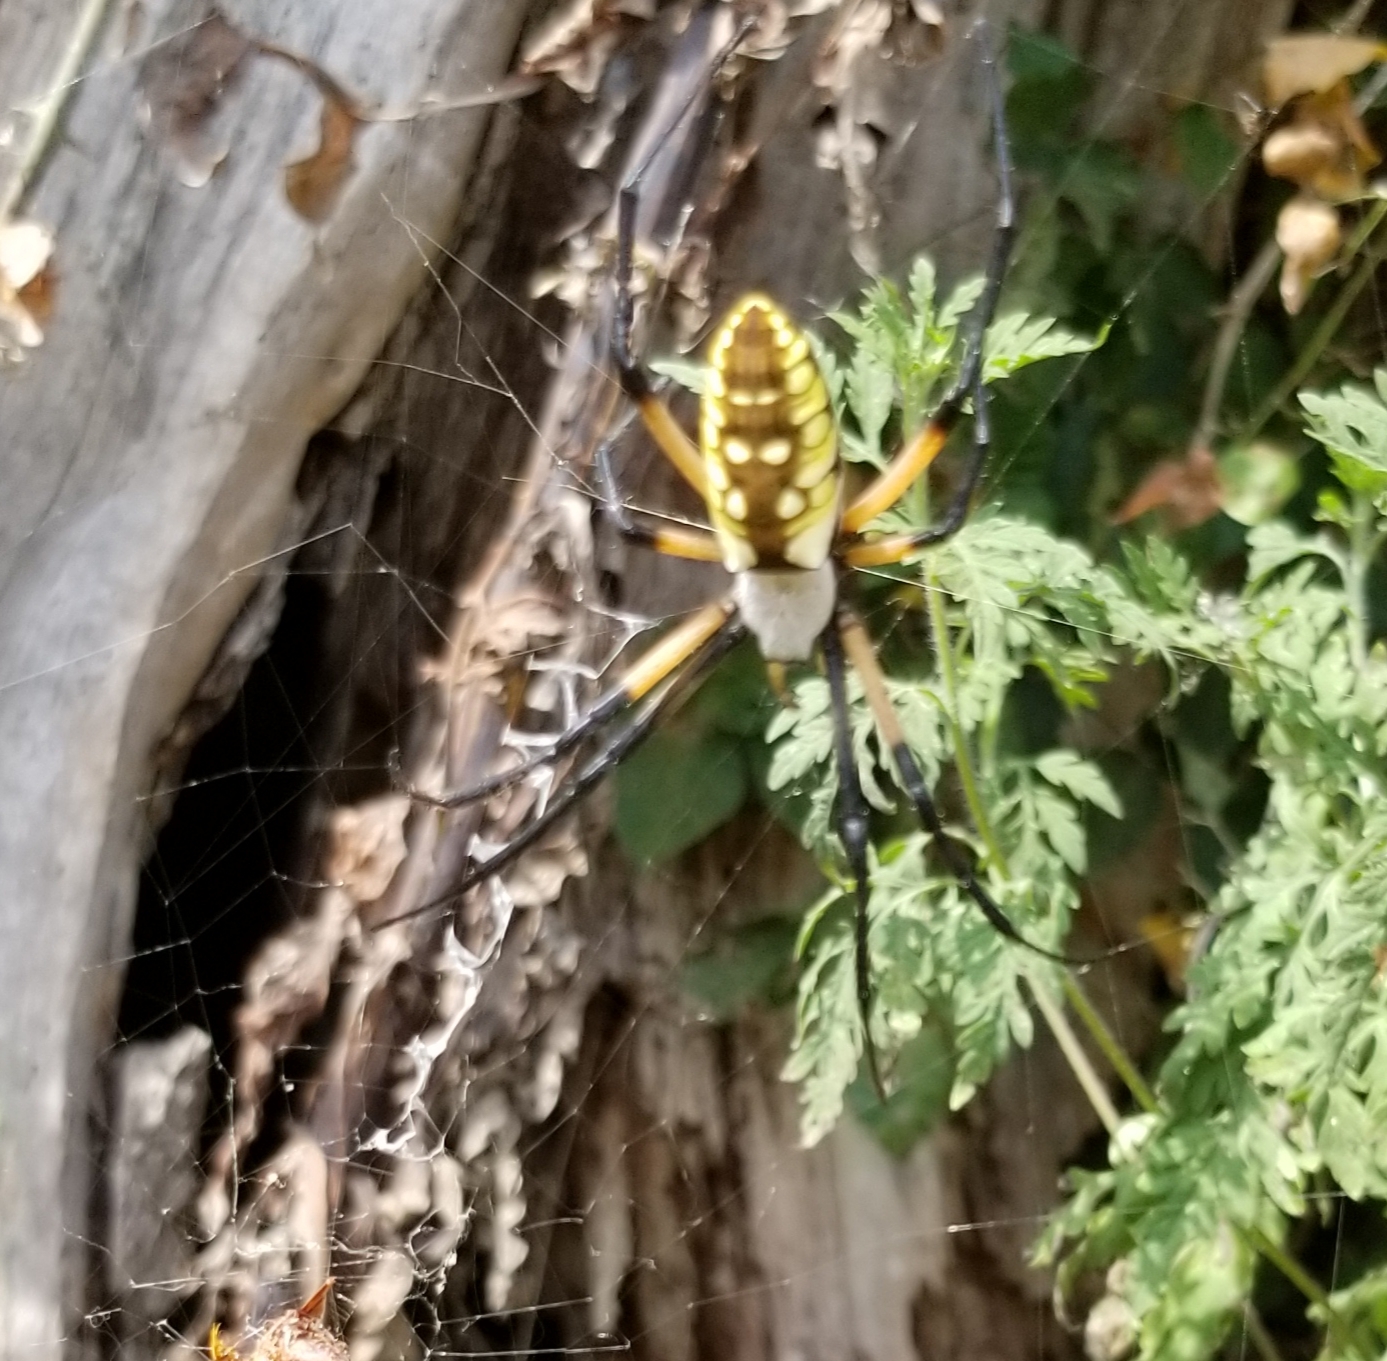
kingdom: Animalia
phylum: Arthropoda
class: Arachnida
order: Araneae
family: Araneidae
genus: Argiope
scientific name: Argiope aurantia
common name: Orb weavers
